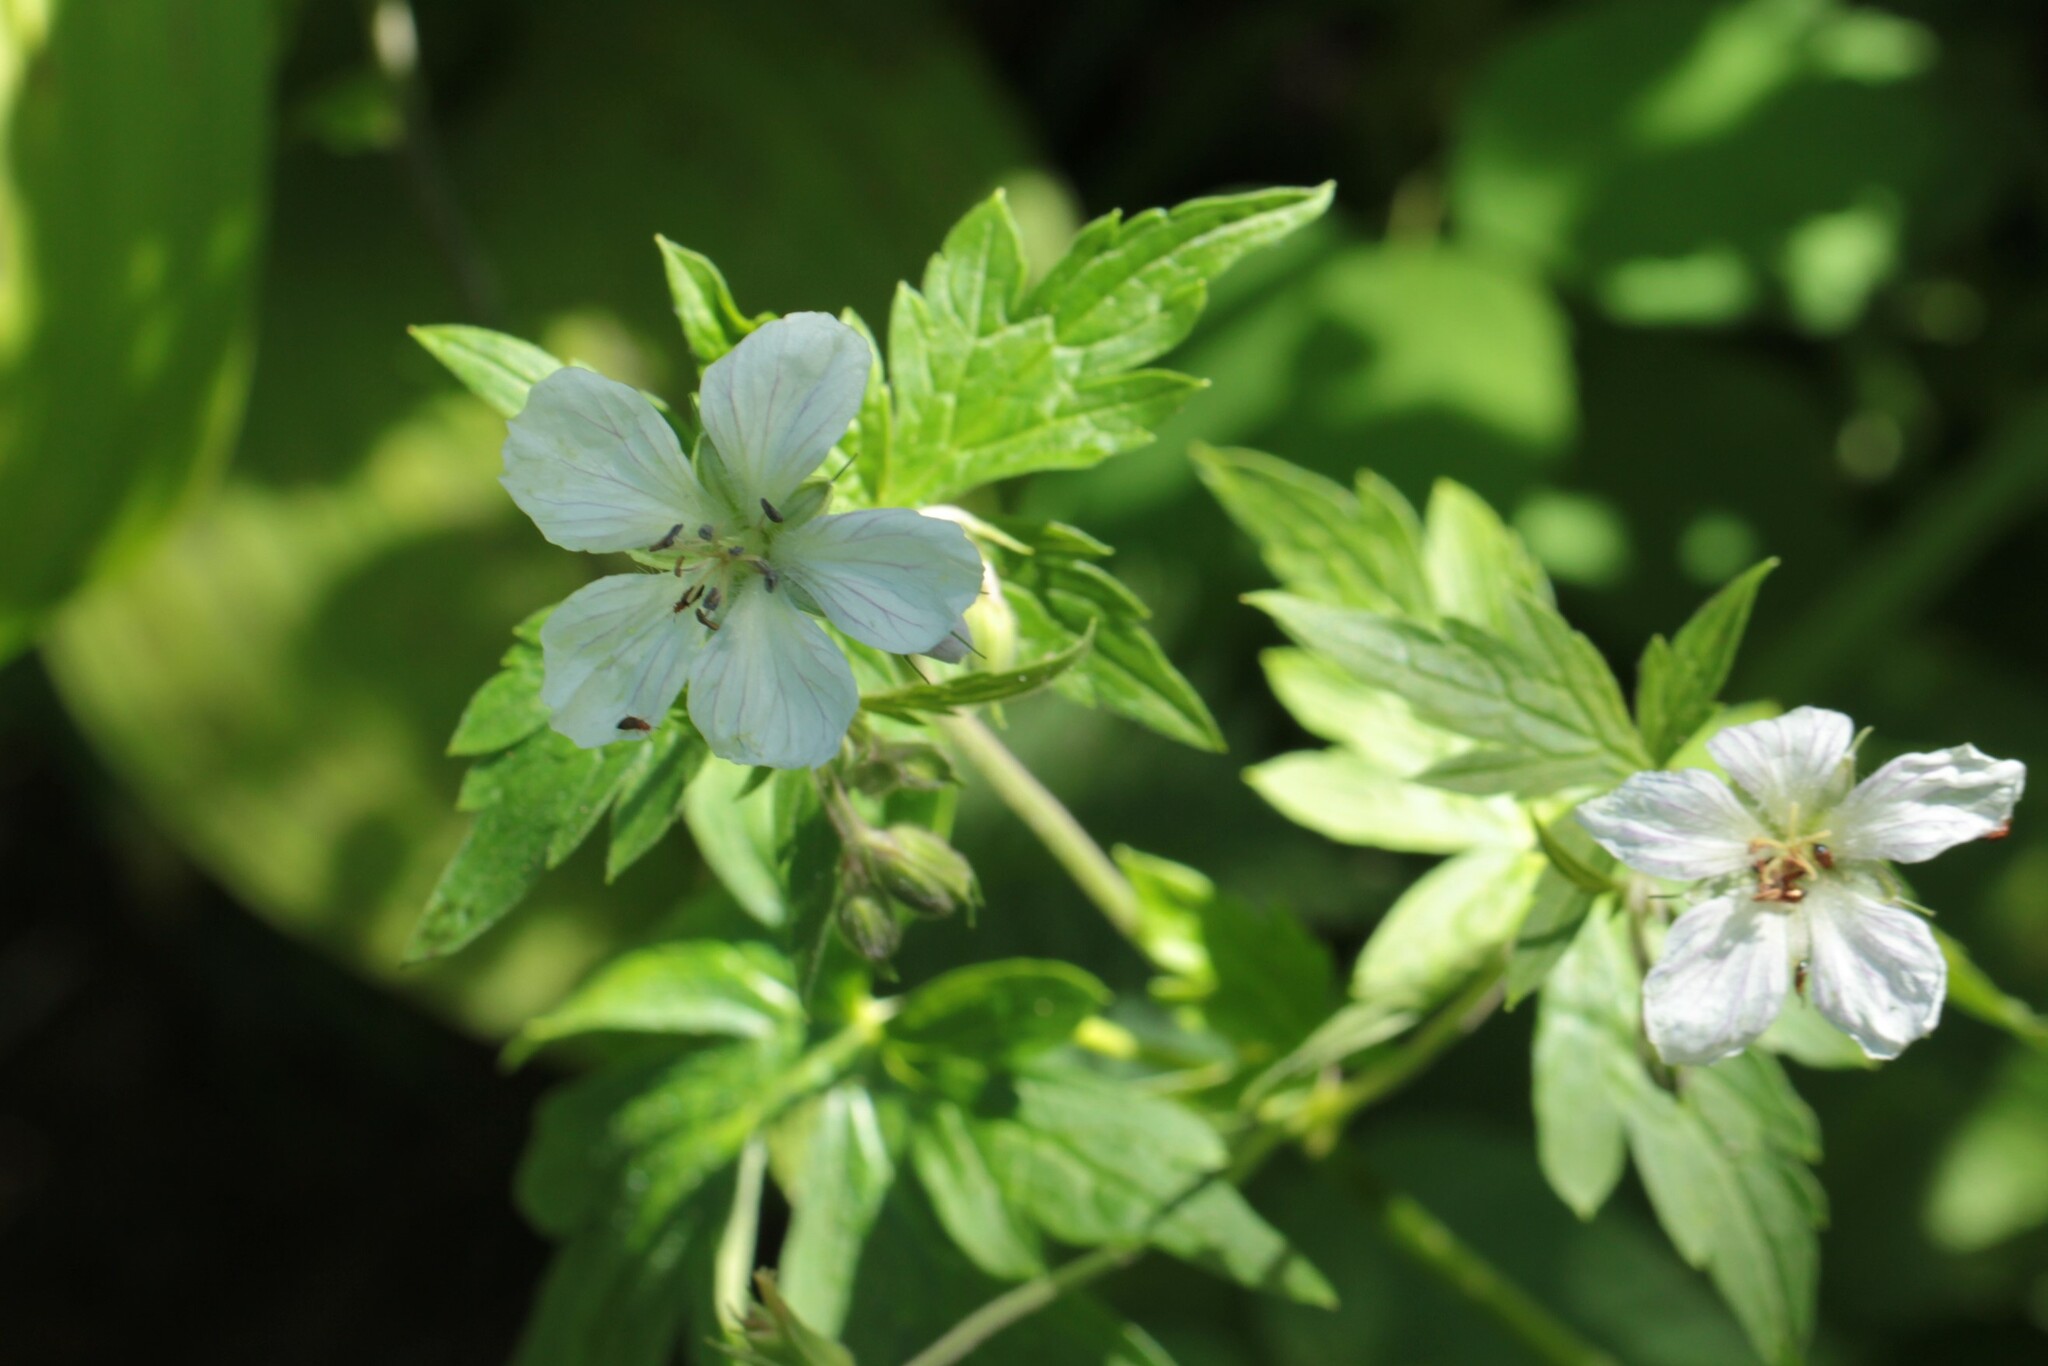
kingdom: Plantae
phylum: Tracheophyta
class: Magnoliopsida
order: Geraniales
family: Geraniaceae
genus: Geranium
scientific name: Geranium richardsonii
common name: Richardson's crane's-bill
